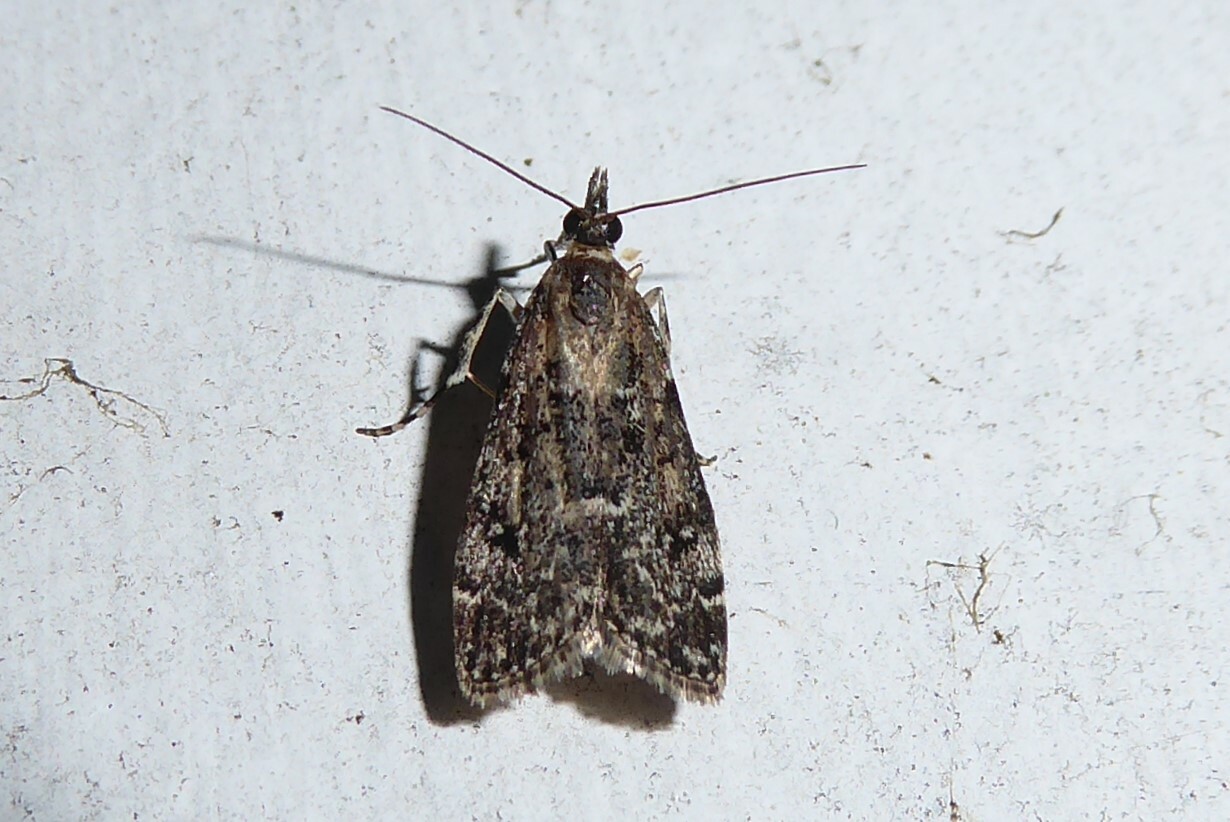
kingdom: Animalia
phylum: Arthropoda
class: Insecta
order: Lepidoptera
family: Crambidae
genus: Eudonia
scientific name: Eudonia philerga
